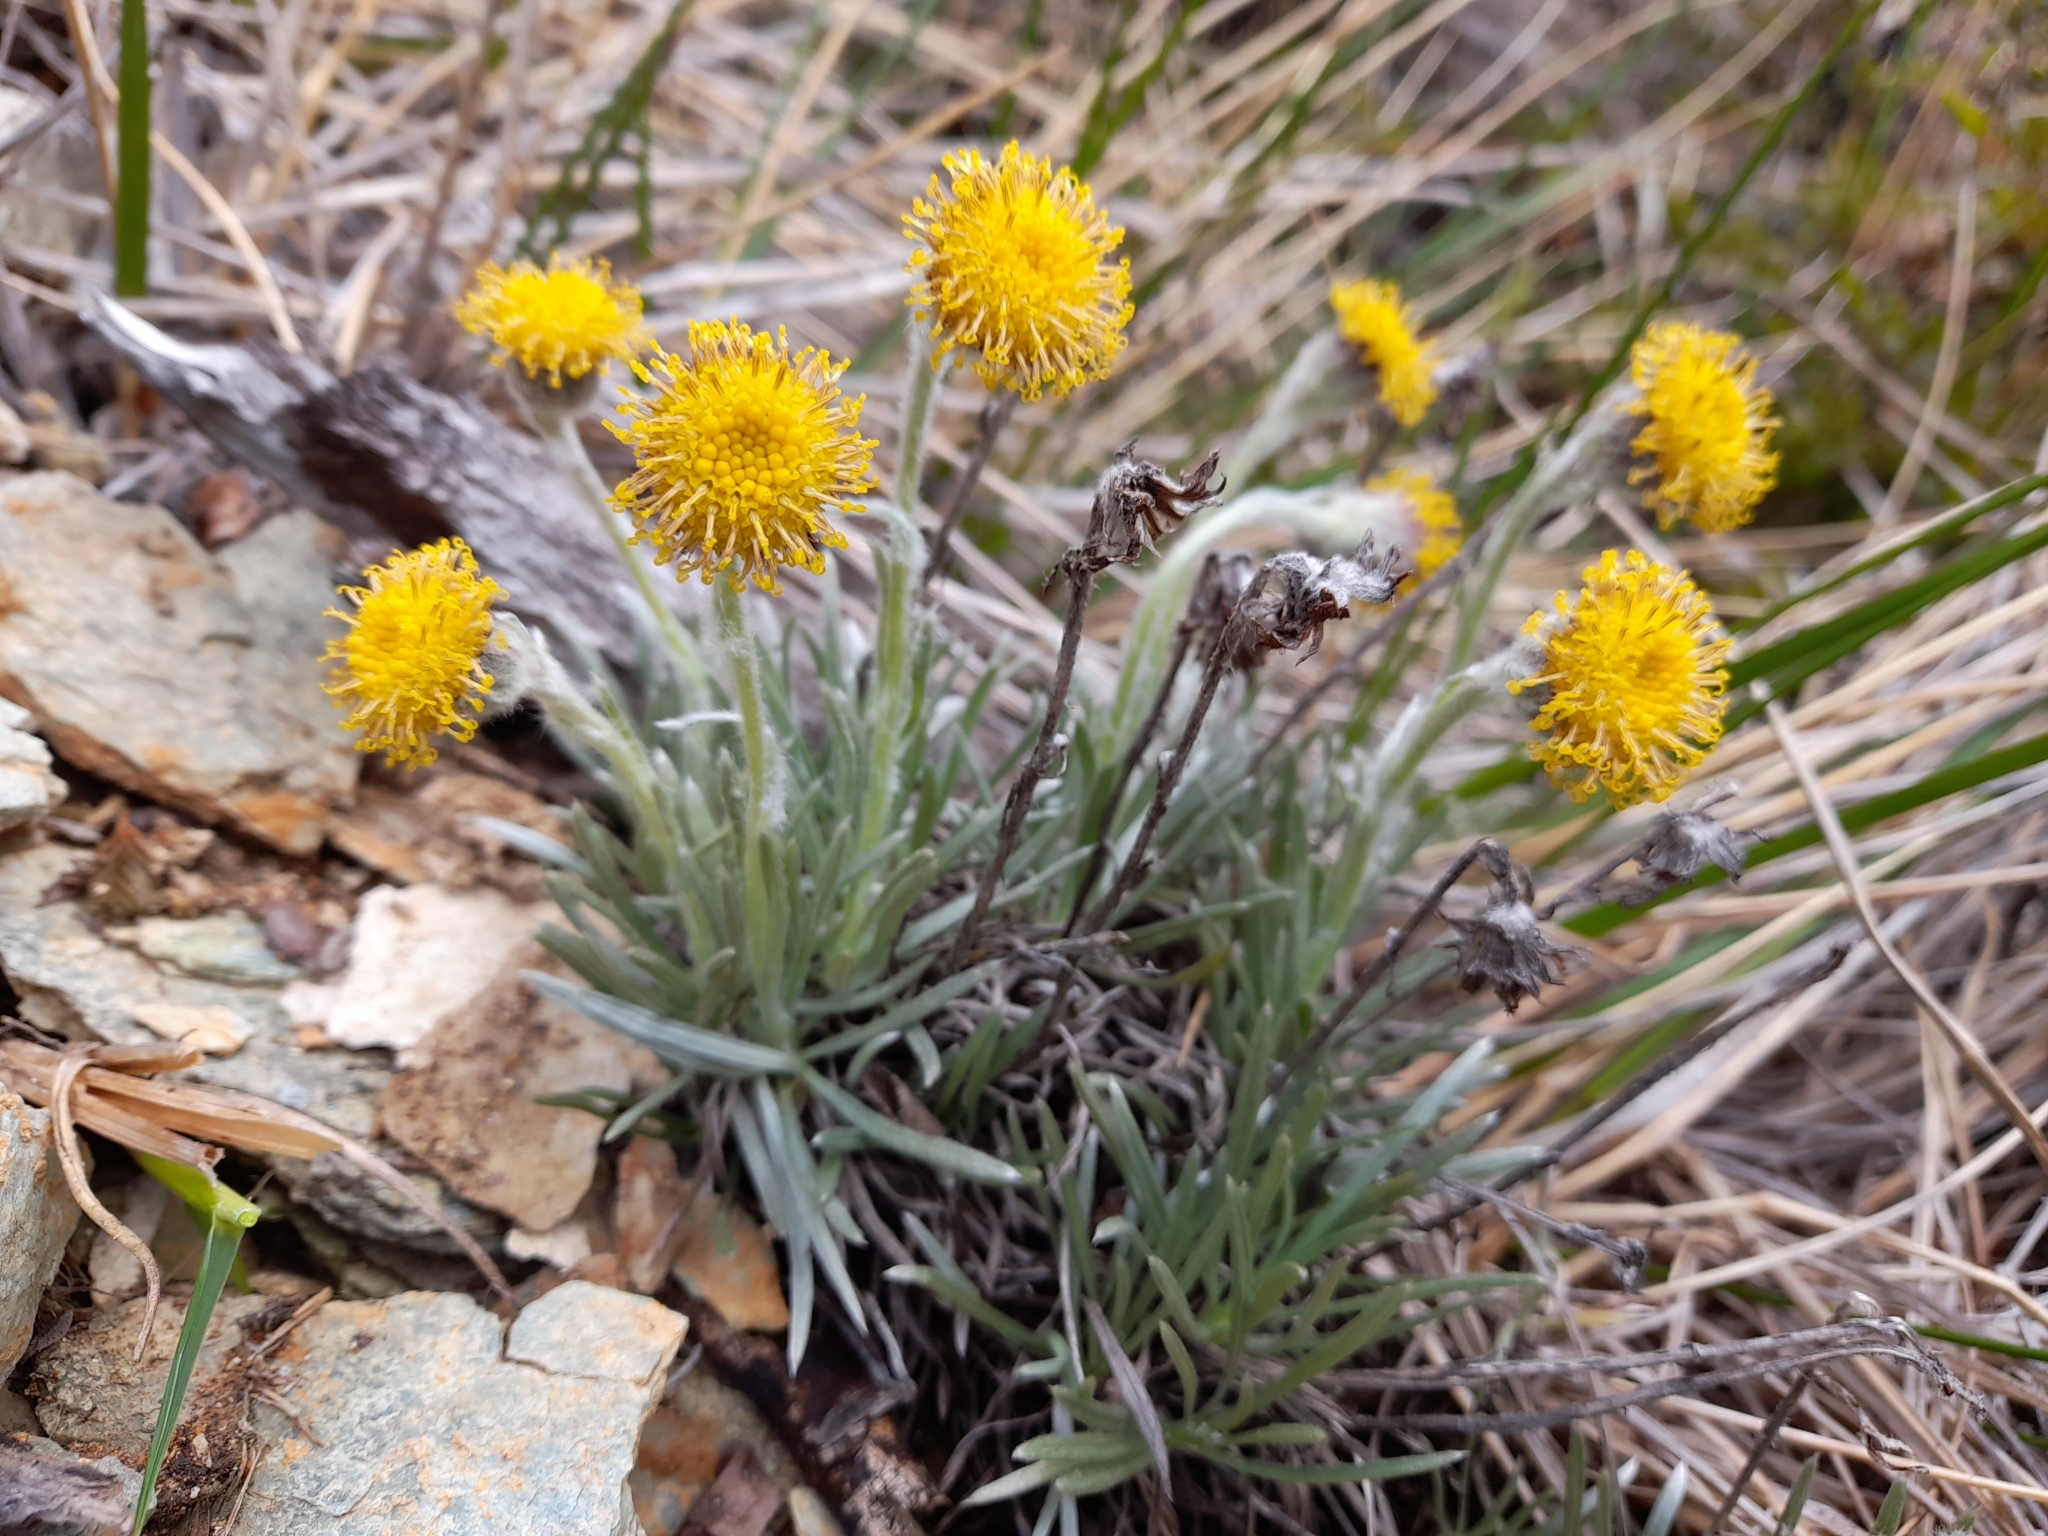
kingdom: Plantae
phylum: Tracheophyta
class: Magnoliopsida
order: Asterales
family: Asteraceae
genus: Senecio
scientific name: Senecio
